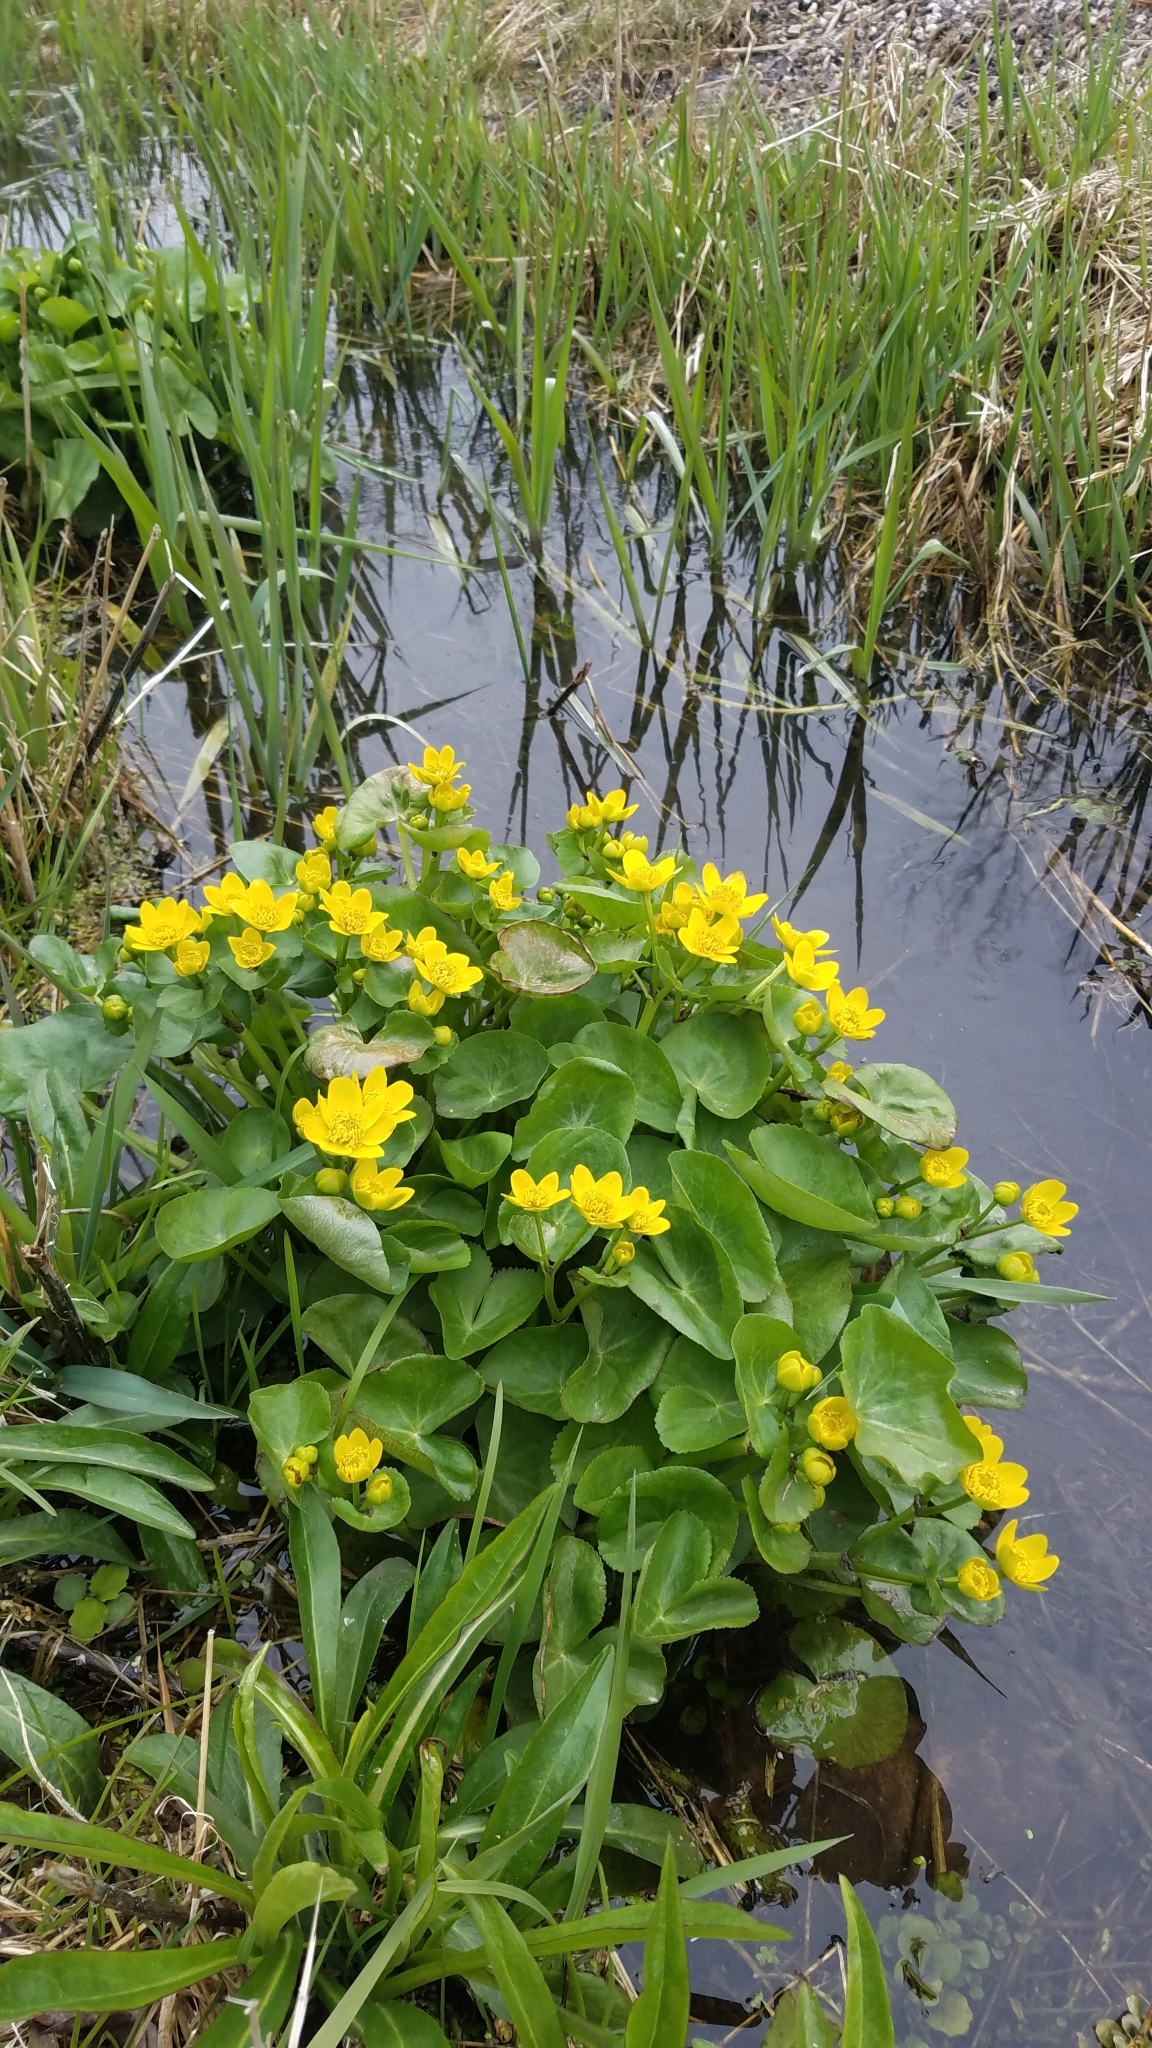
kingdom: Plantae
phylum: Tracheophyta
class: Magnoliopsida
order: Ranunculales
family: Ranunculaceae
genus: Caltha
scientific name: Caltha palustris
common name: Marsh marigold
